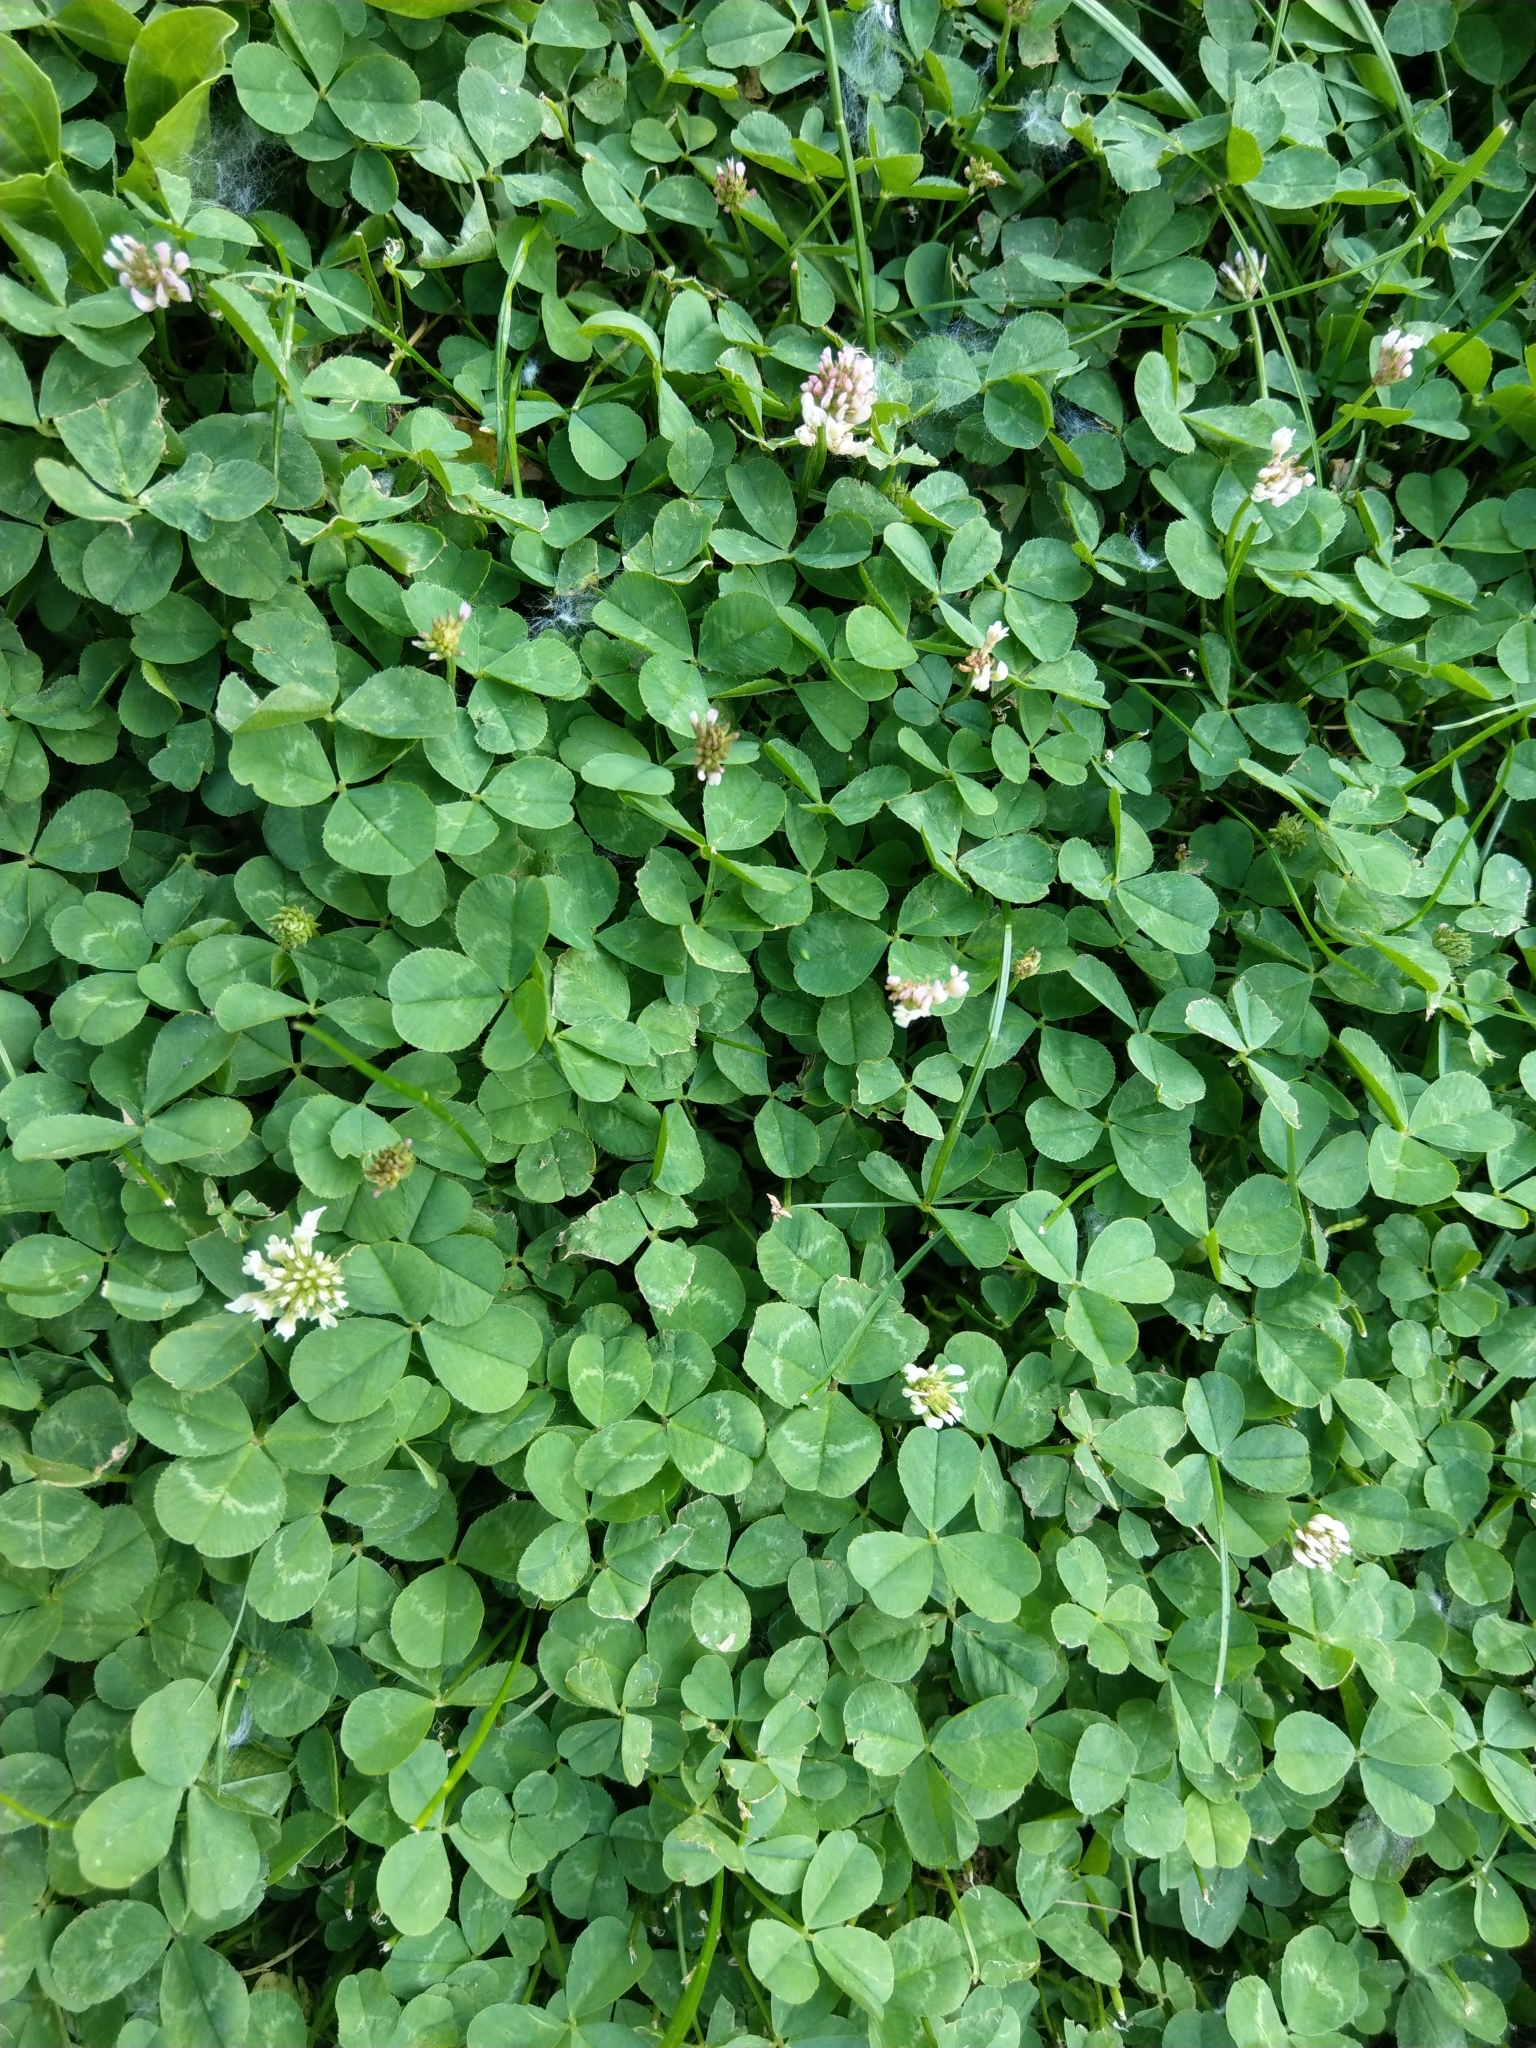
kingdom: Plantae
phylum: Tracheophyta
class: Magnoliopsida
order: Fabales
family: Fabaceae
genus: Trifolium
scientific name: Trifolium repens
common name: White clover
